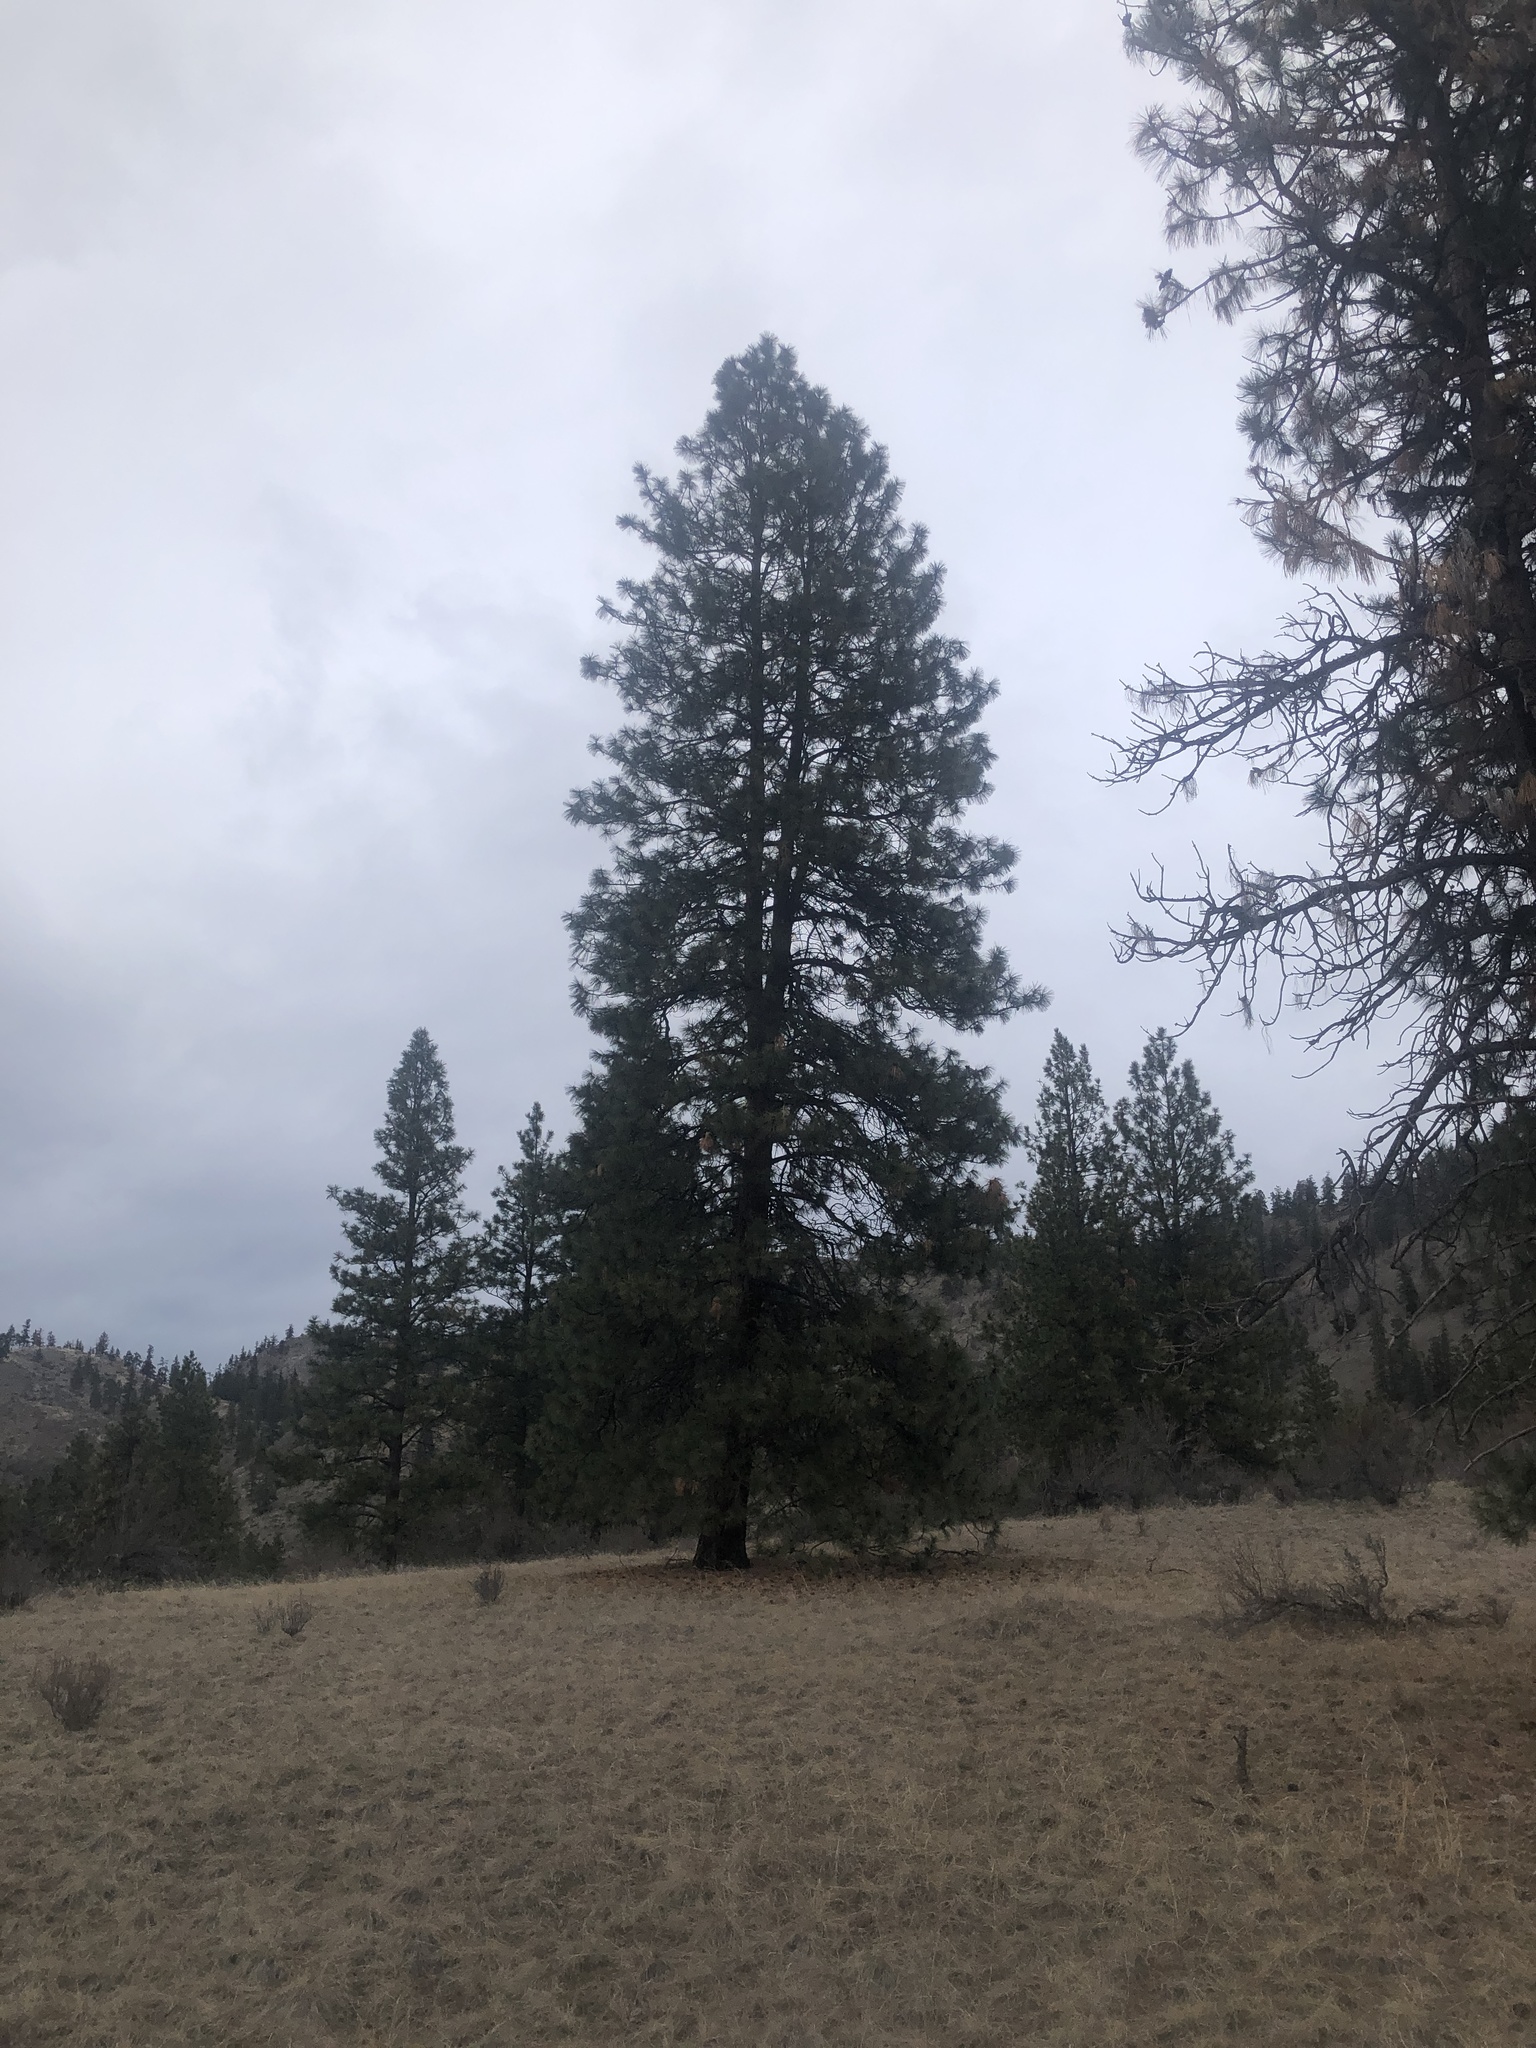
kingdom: Plantae
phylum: Tracheophyta
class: Pinopsida
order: Pinales
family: Pinaceae
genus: Pinus
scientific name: Pinus ponderosa
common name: Western yellow-pine
